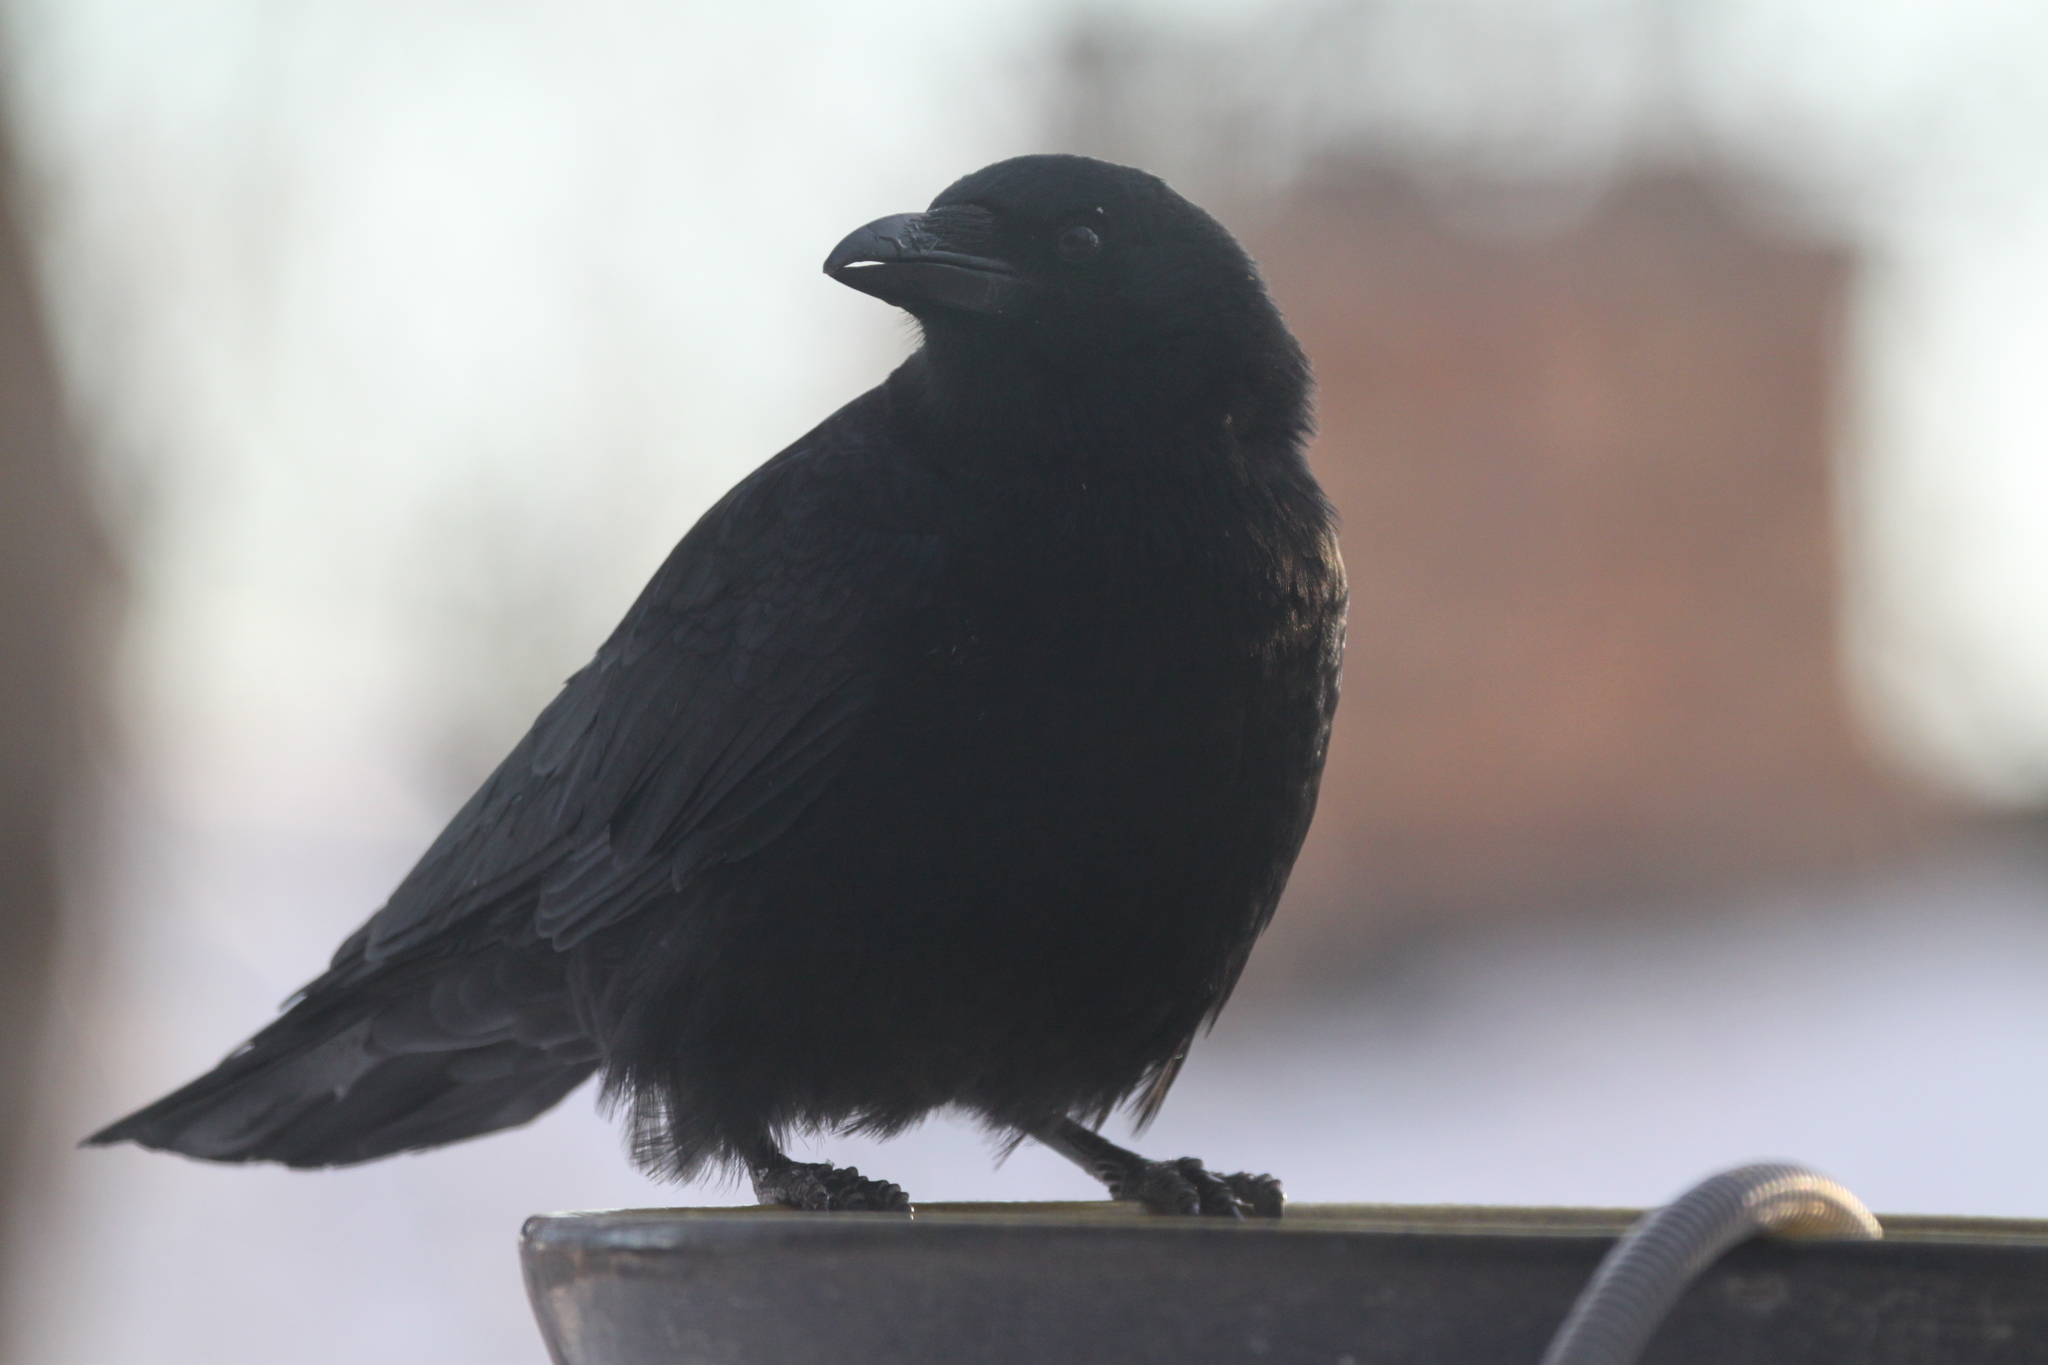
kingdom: Animalia
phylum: Chordata
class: Aves
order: Passeriformes
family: Corvidae
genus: Corvus
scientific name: Corvus brachyrhynchos
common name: American crow
